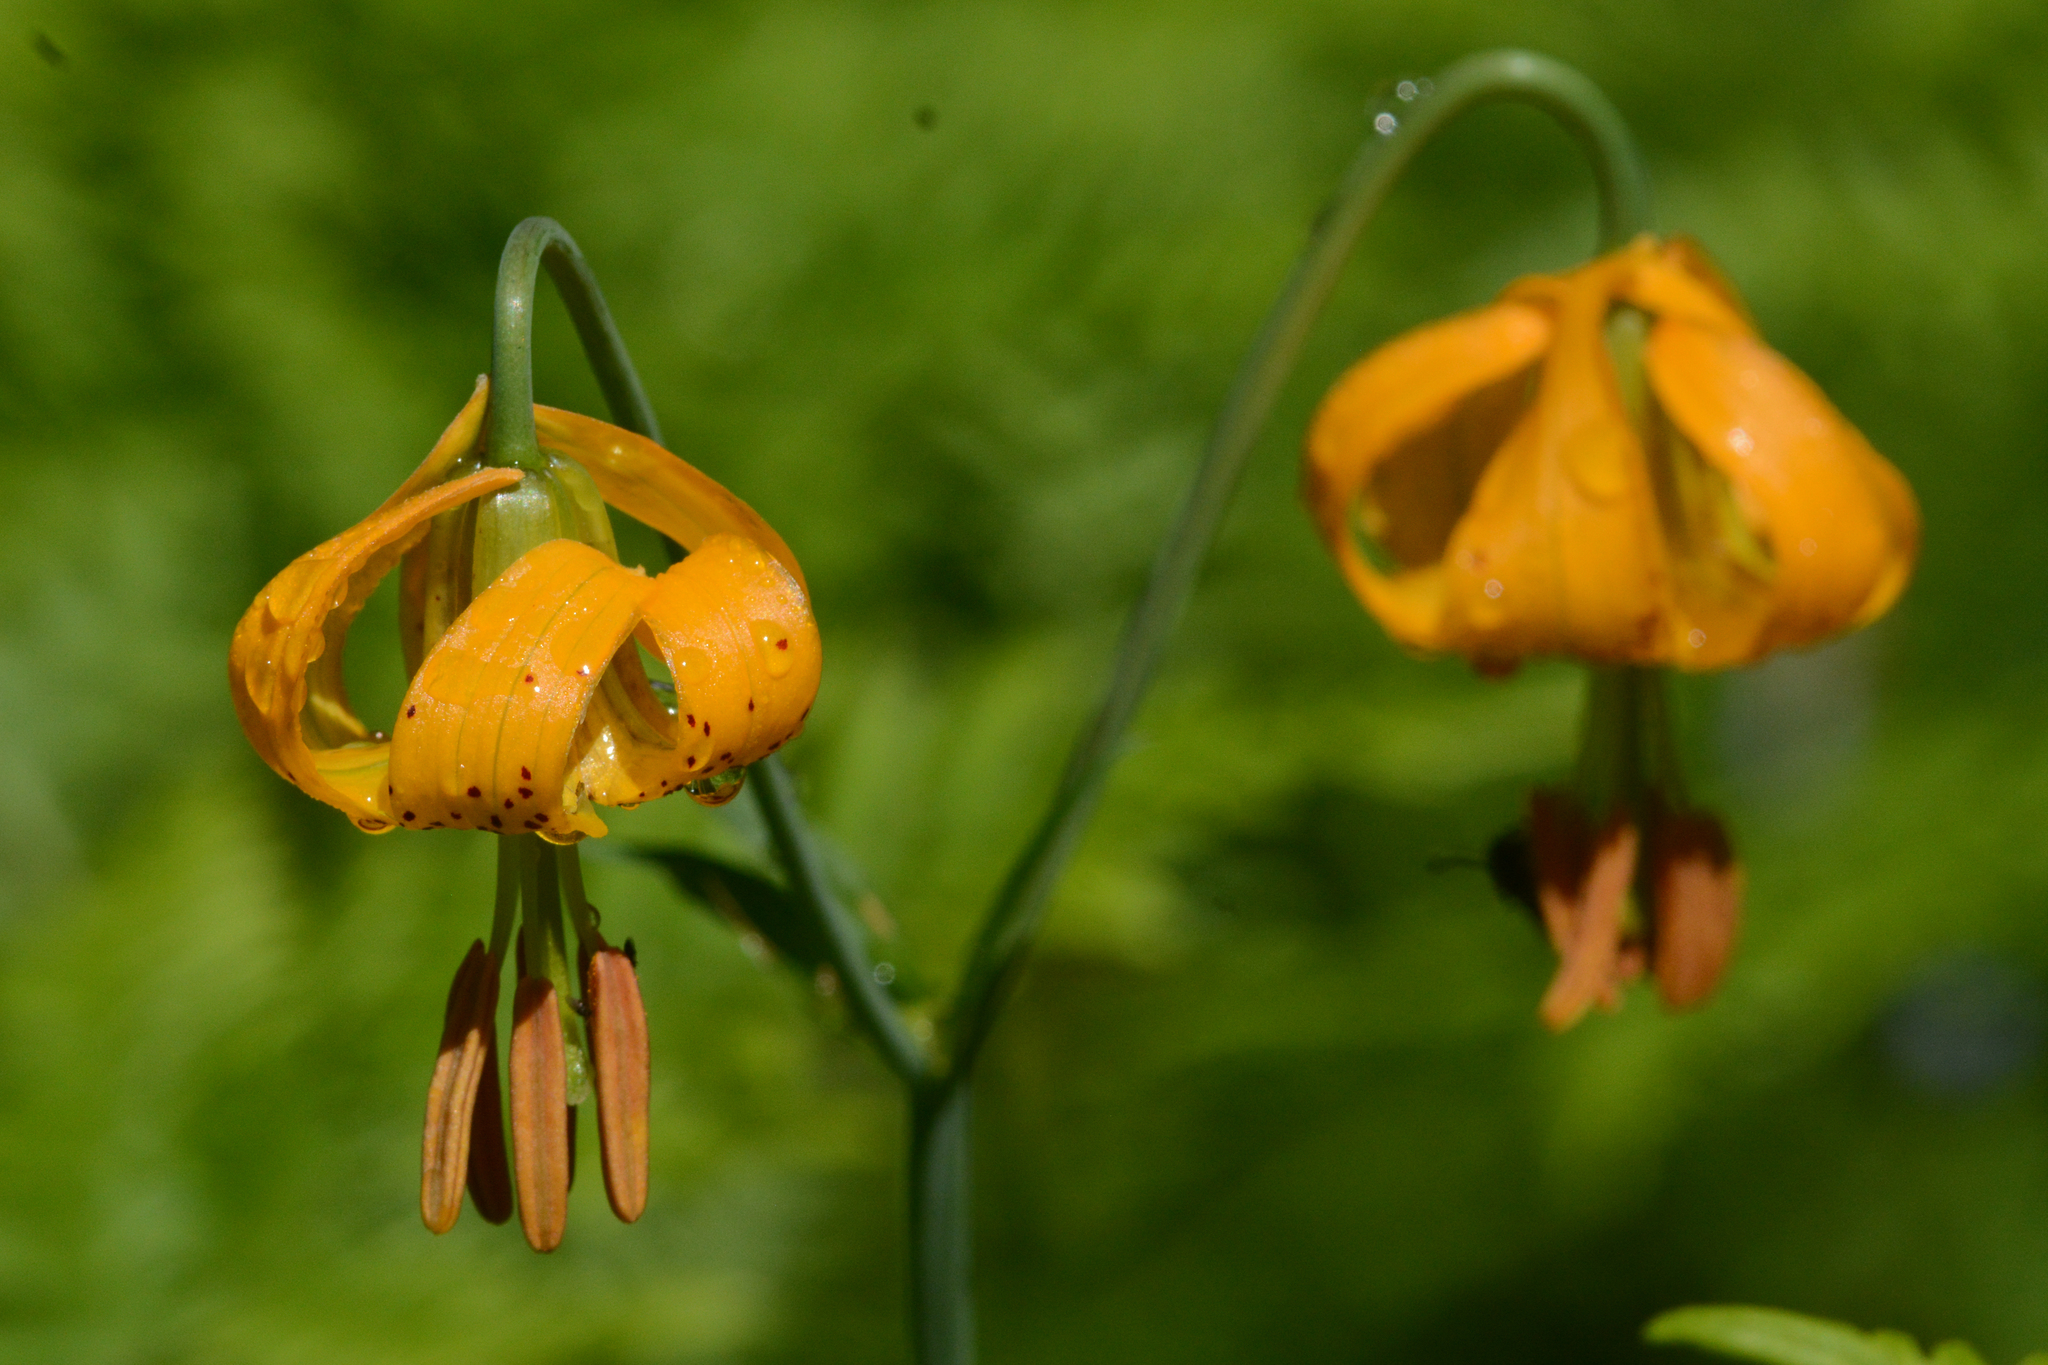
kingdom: Plantae
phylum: Tracheophyta
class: Liliopsida
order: Liliales
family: Liliaceae
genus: Lilium
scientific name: Lilium columbianum
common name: Columbia lily
